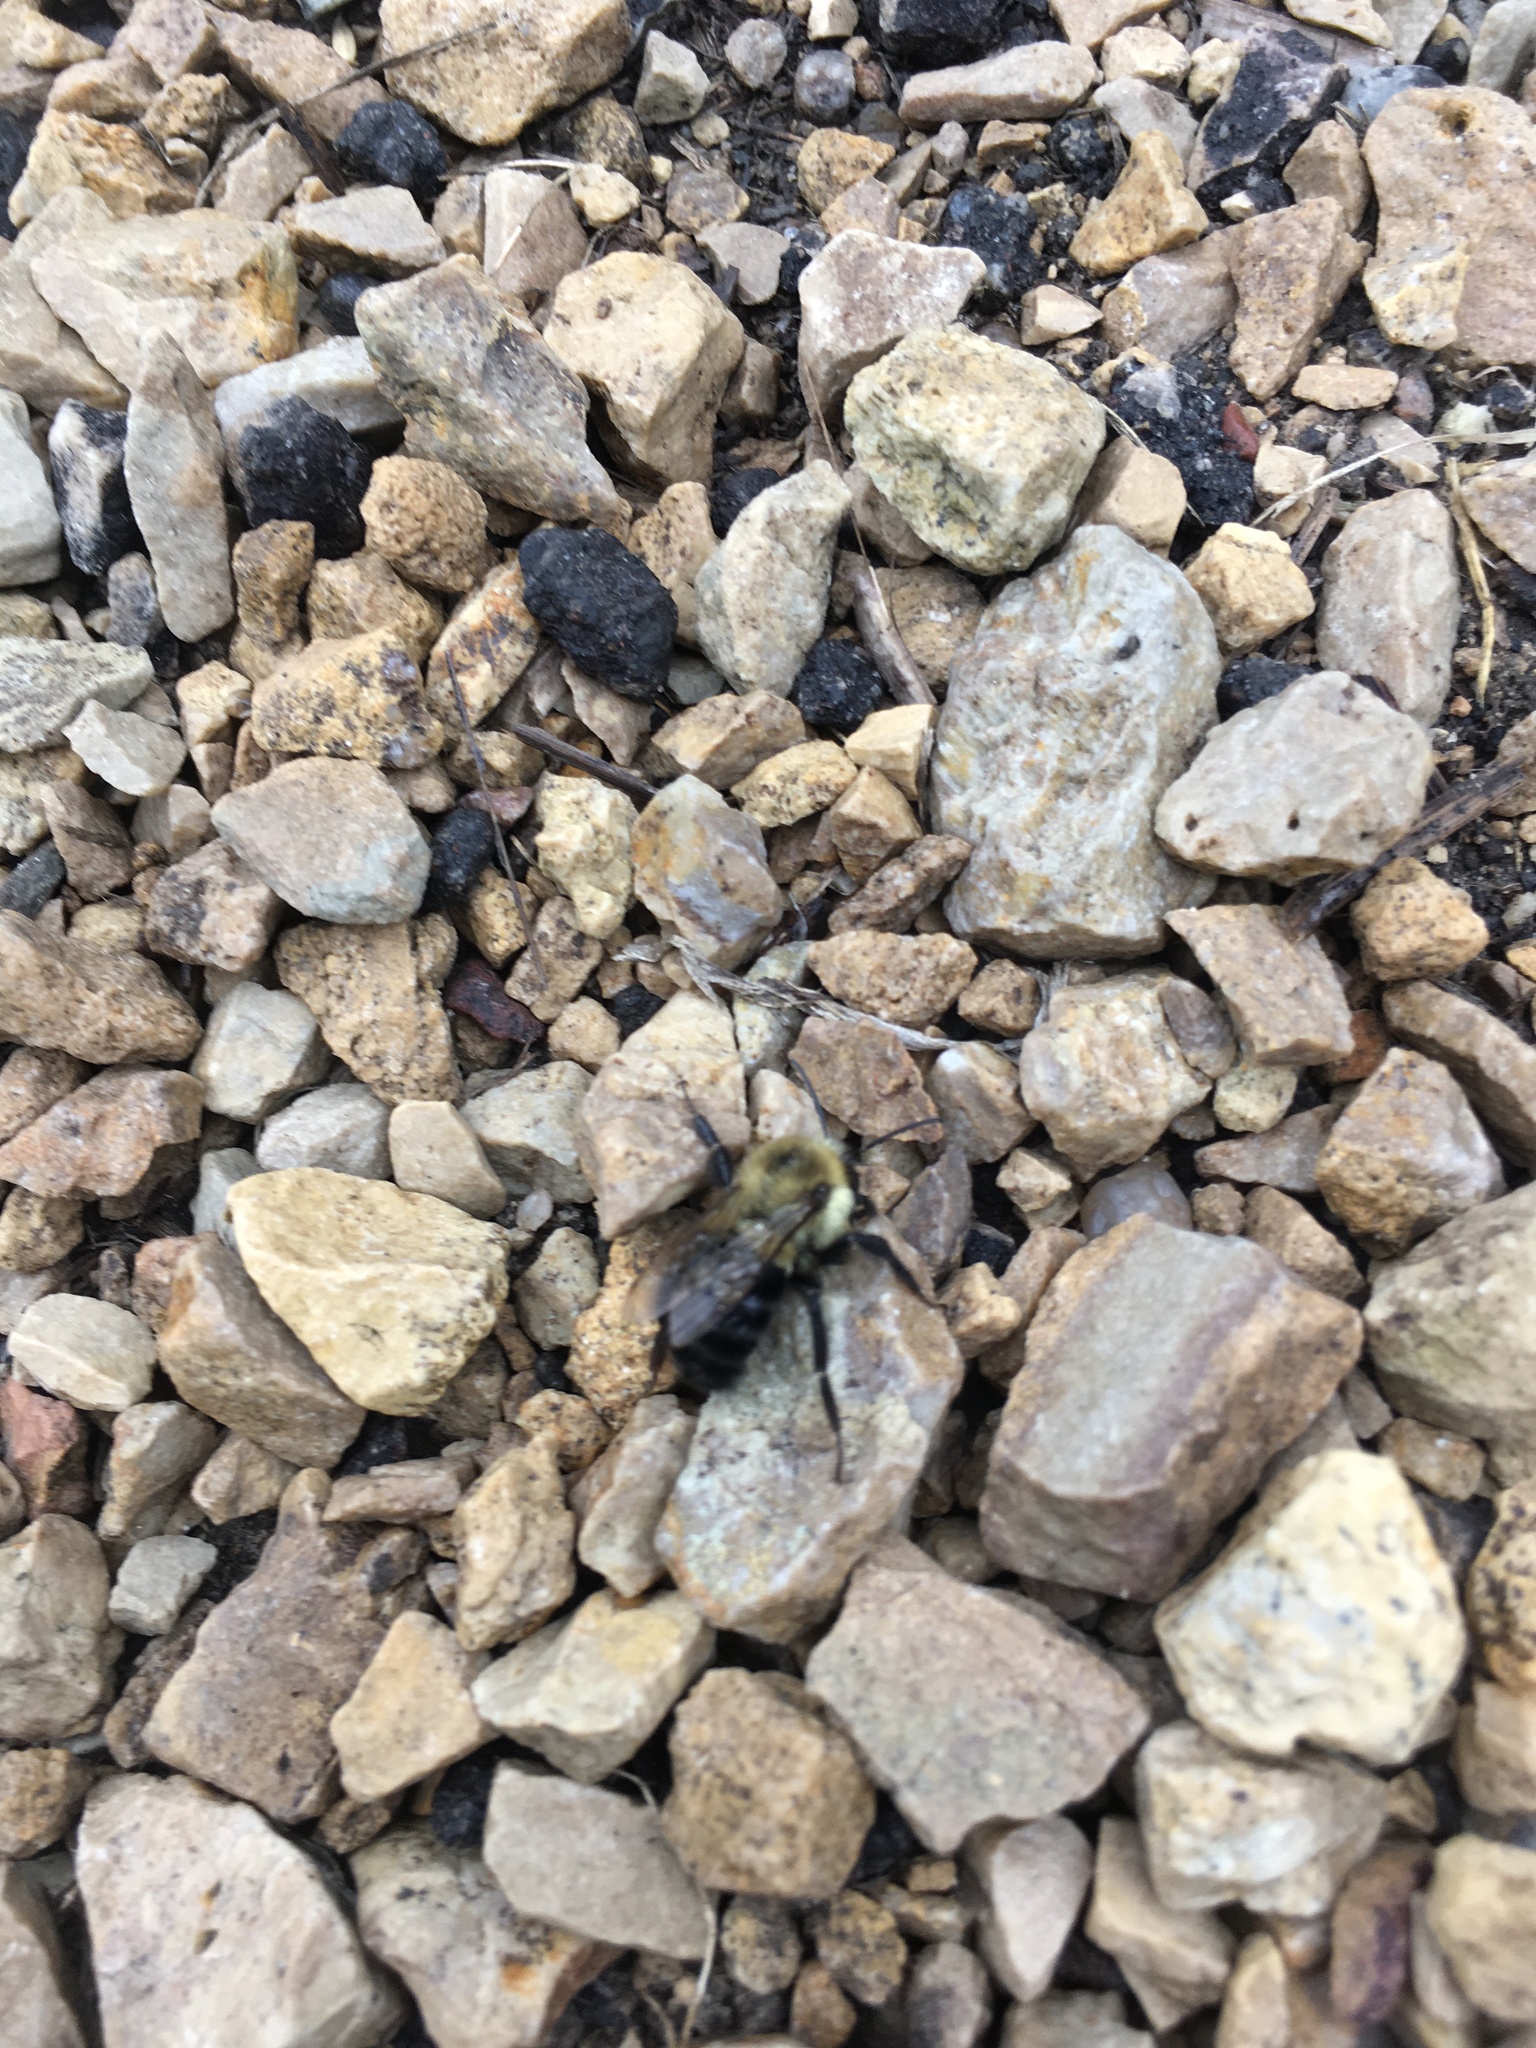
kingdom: Animalia
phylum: Arthropoda
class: Insecta
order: Hymenoptera
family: Apidae
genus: Bombus
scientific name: Bombus impatiens
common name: Common eastern bumble bee
